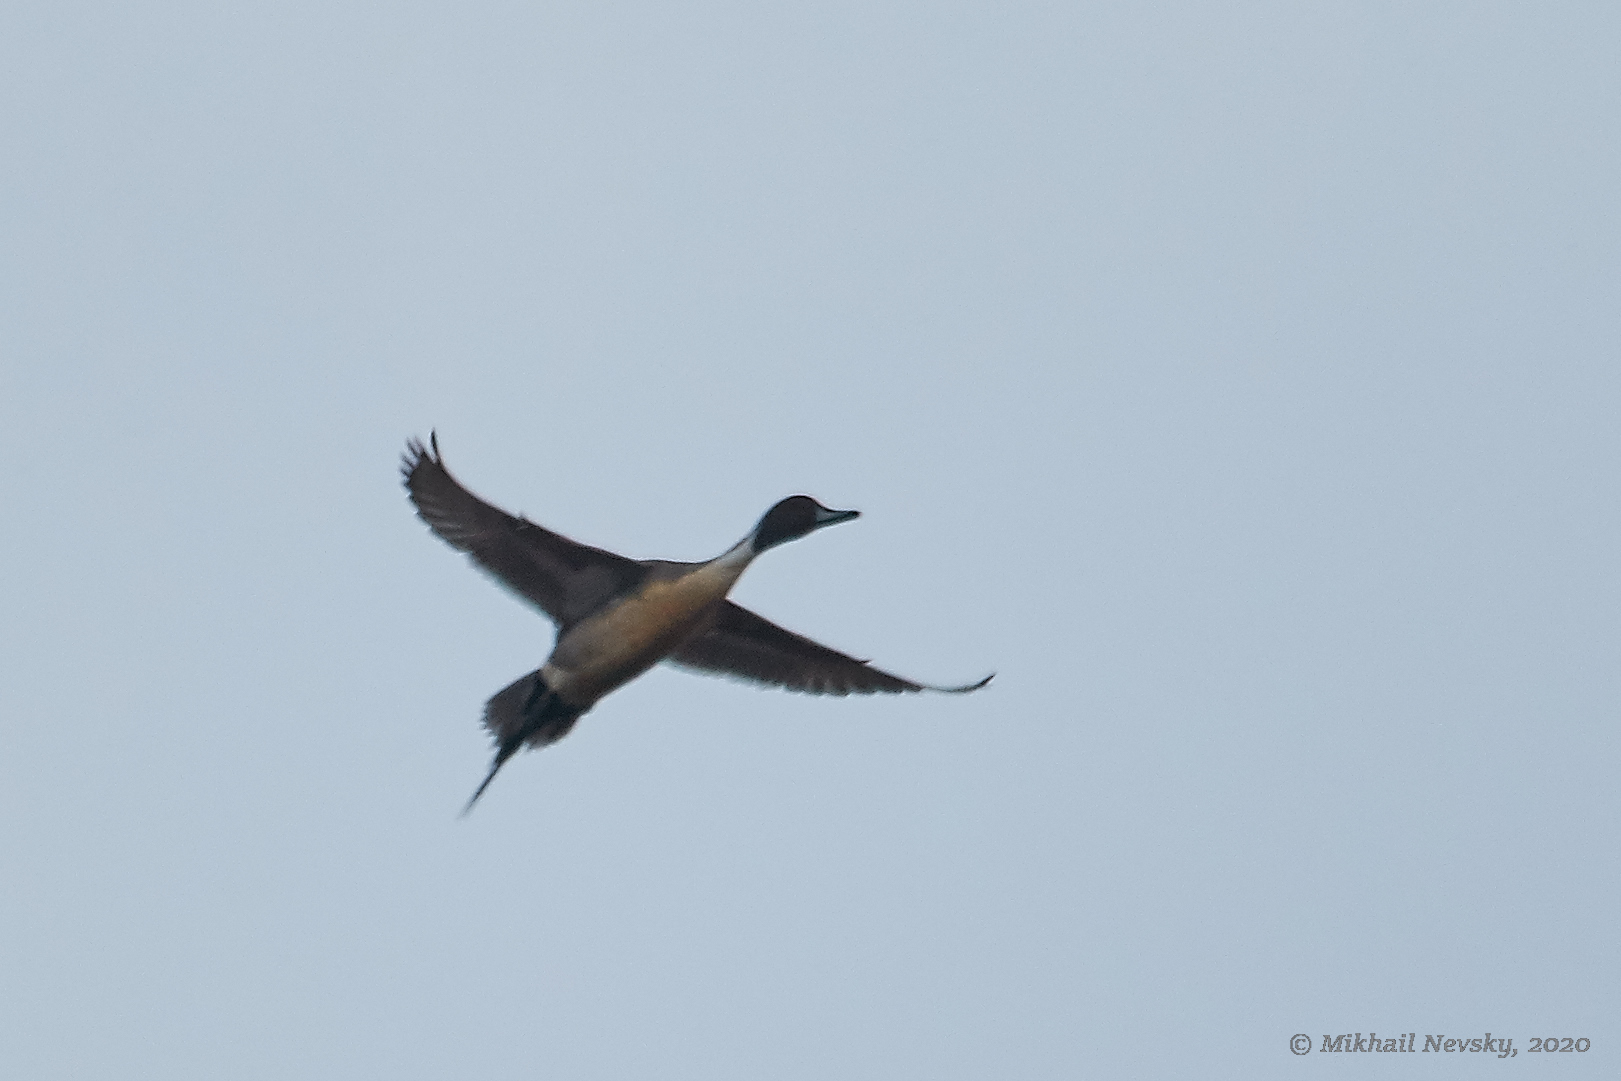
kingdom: Animalia
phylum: Chordata
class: Aves
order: Anseriformes
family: Anatidae
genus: Anas
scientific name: Anas acuta
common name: Northern pintail
